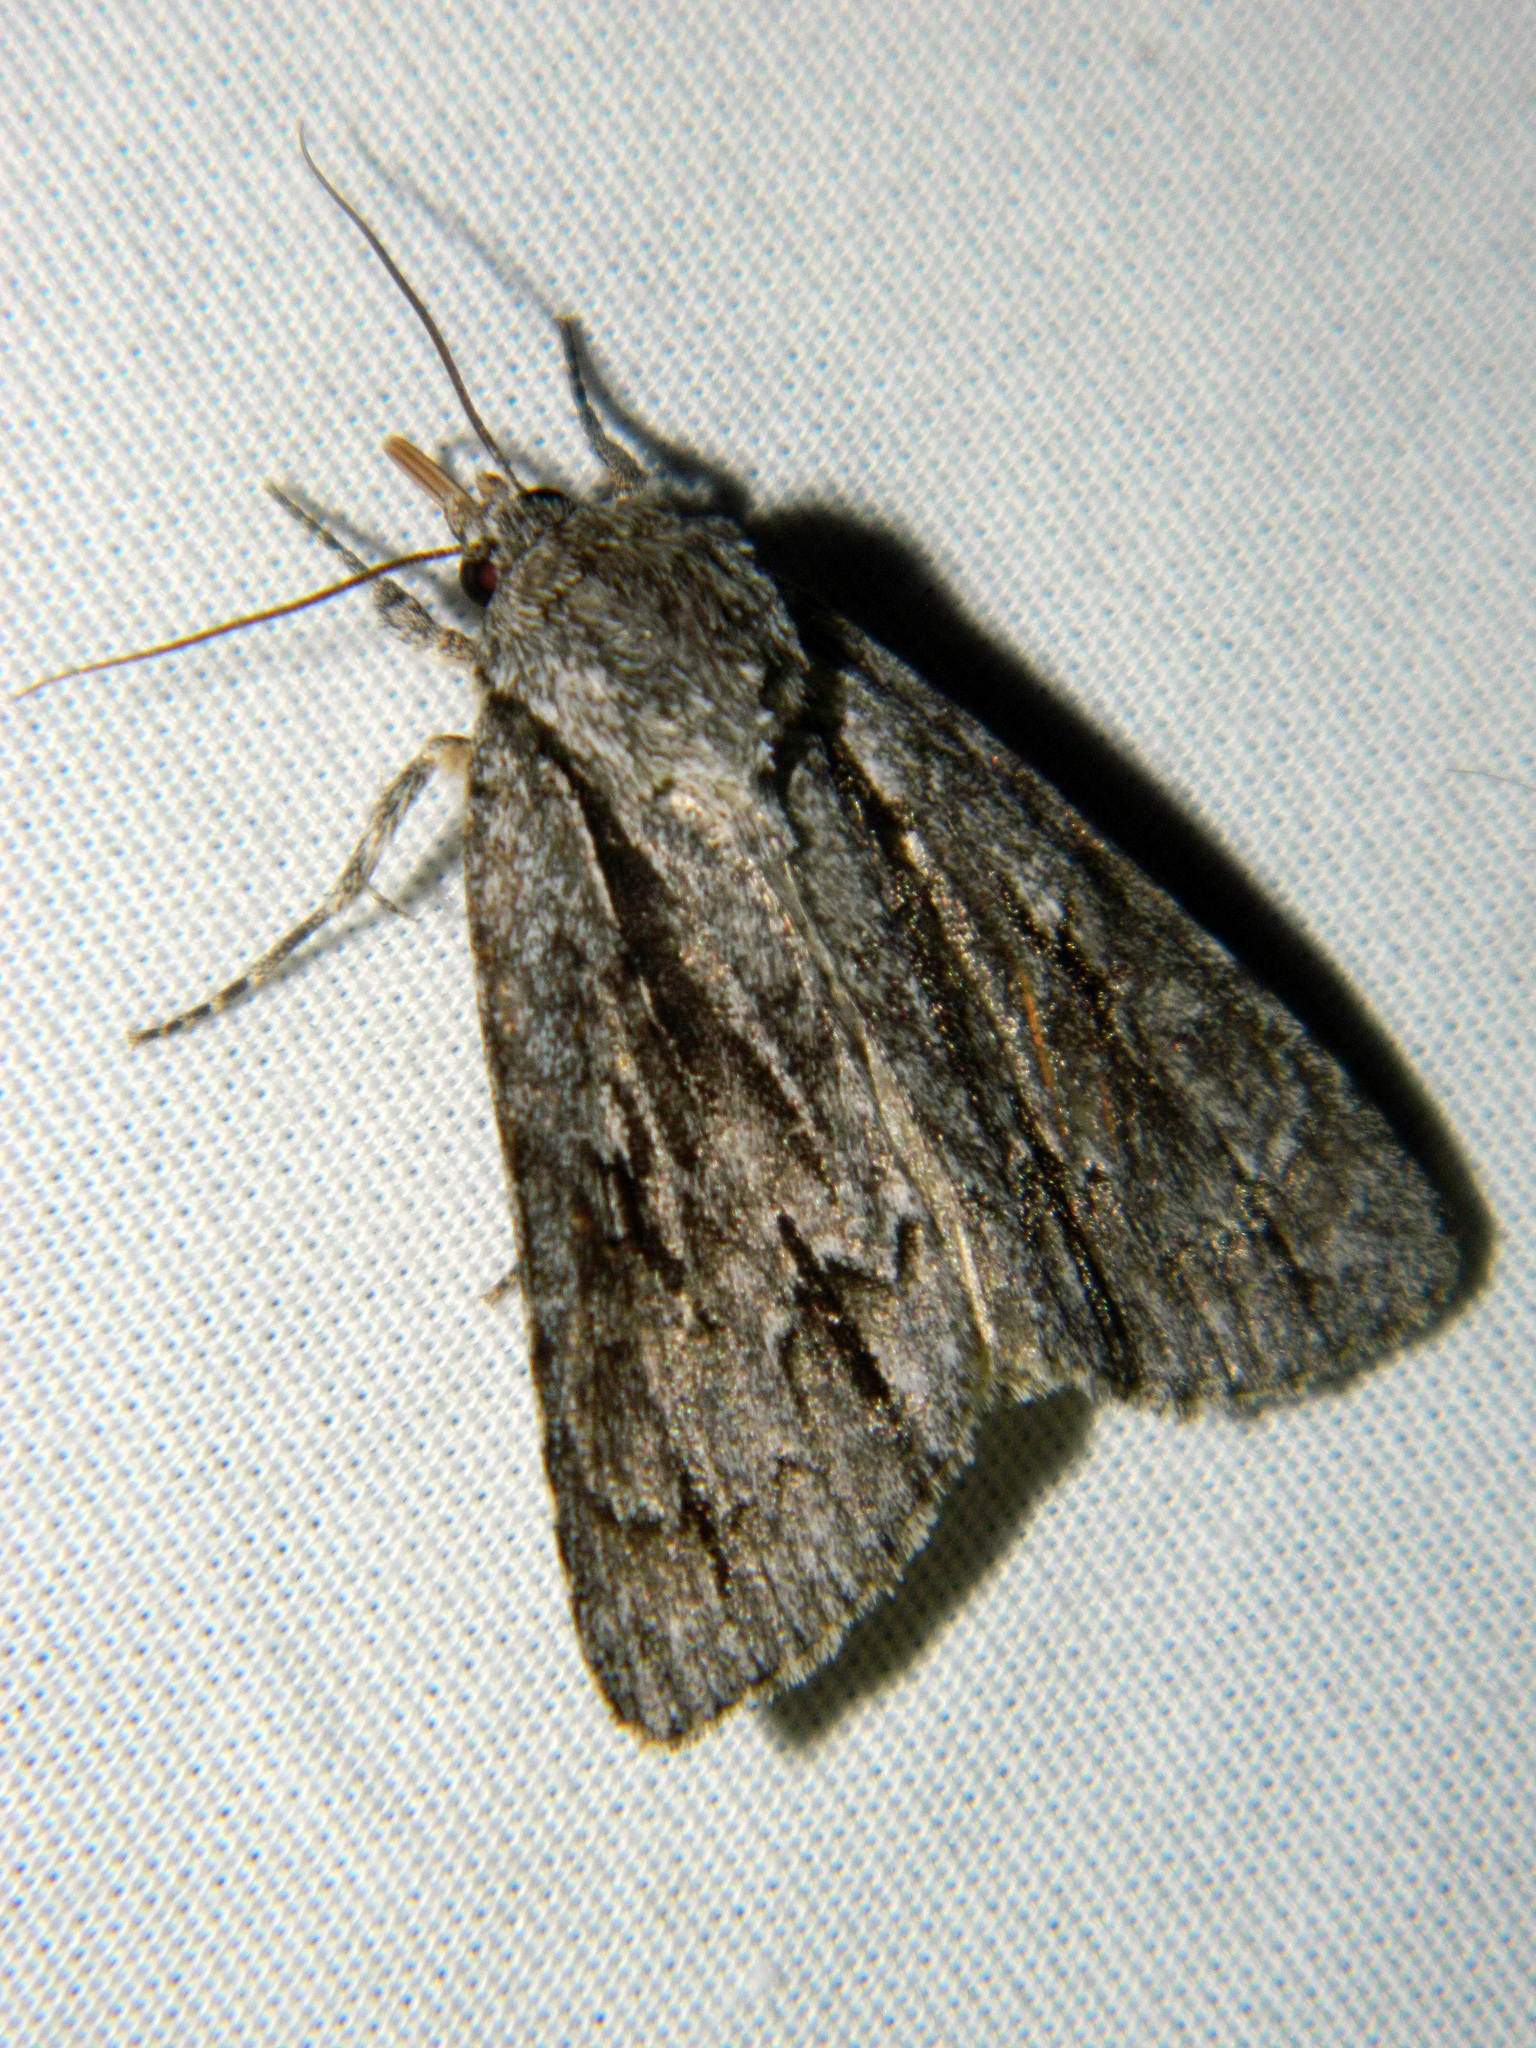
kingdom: Animalia
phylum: Arthropoda
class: Insecta
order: Lepidoptera
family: Noctuidae
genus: Acronicta
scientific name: Acronicta hasta
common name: Cherry dagger
